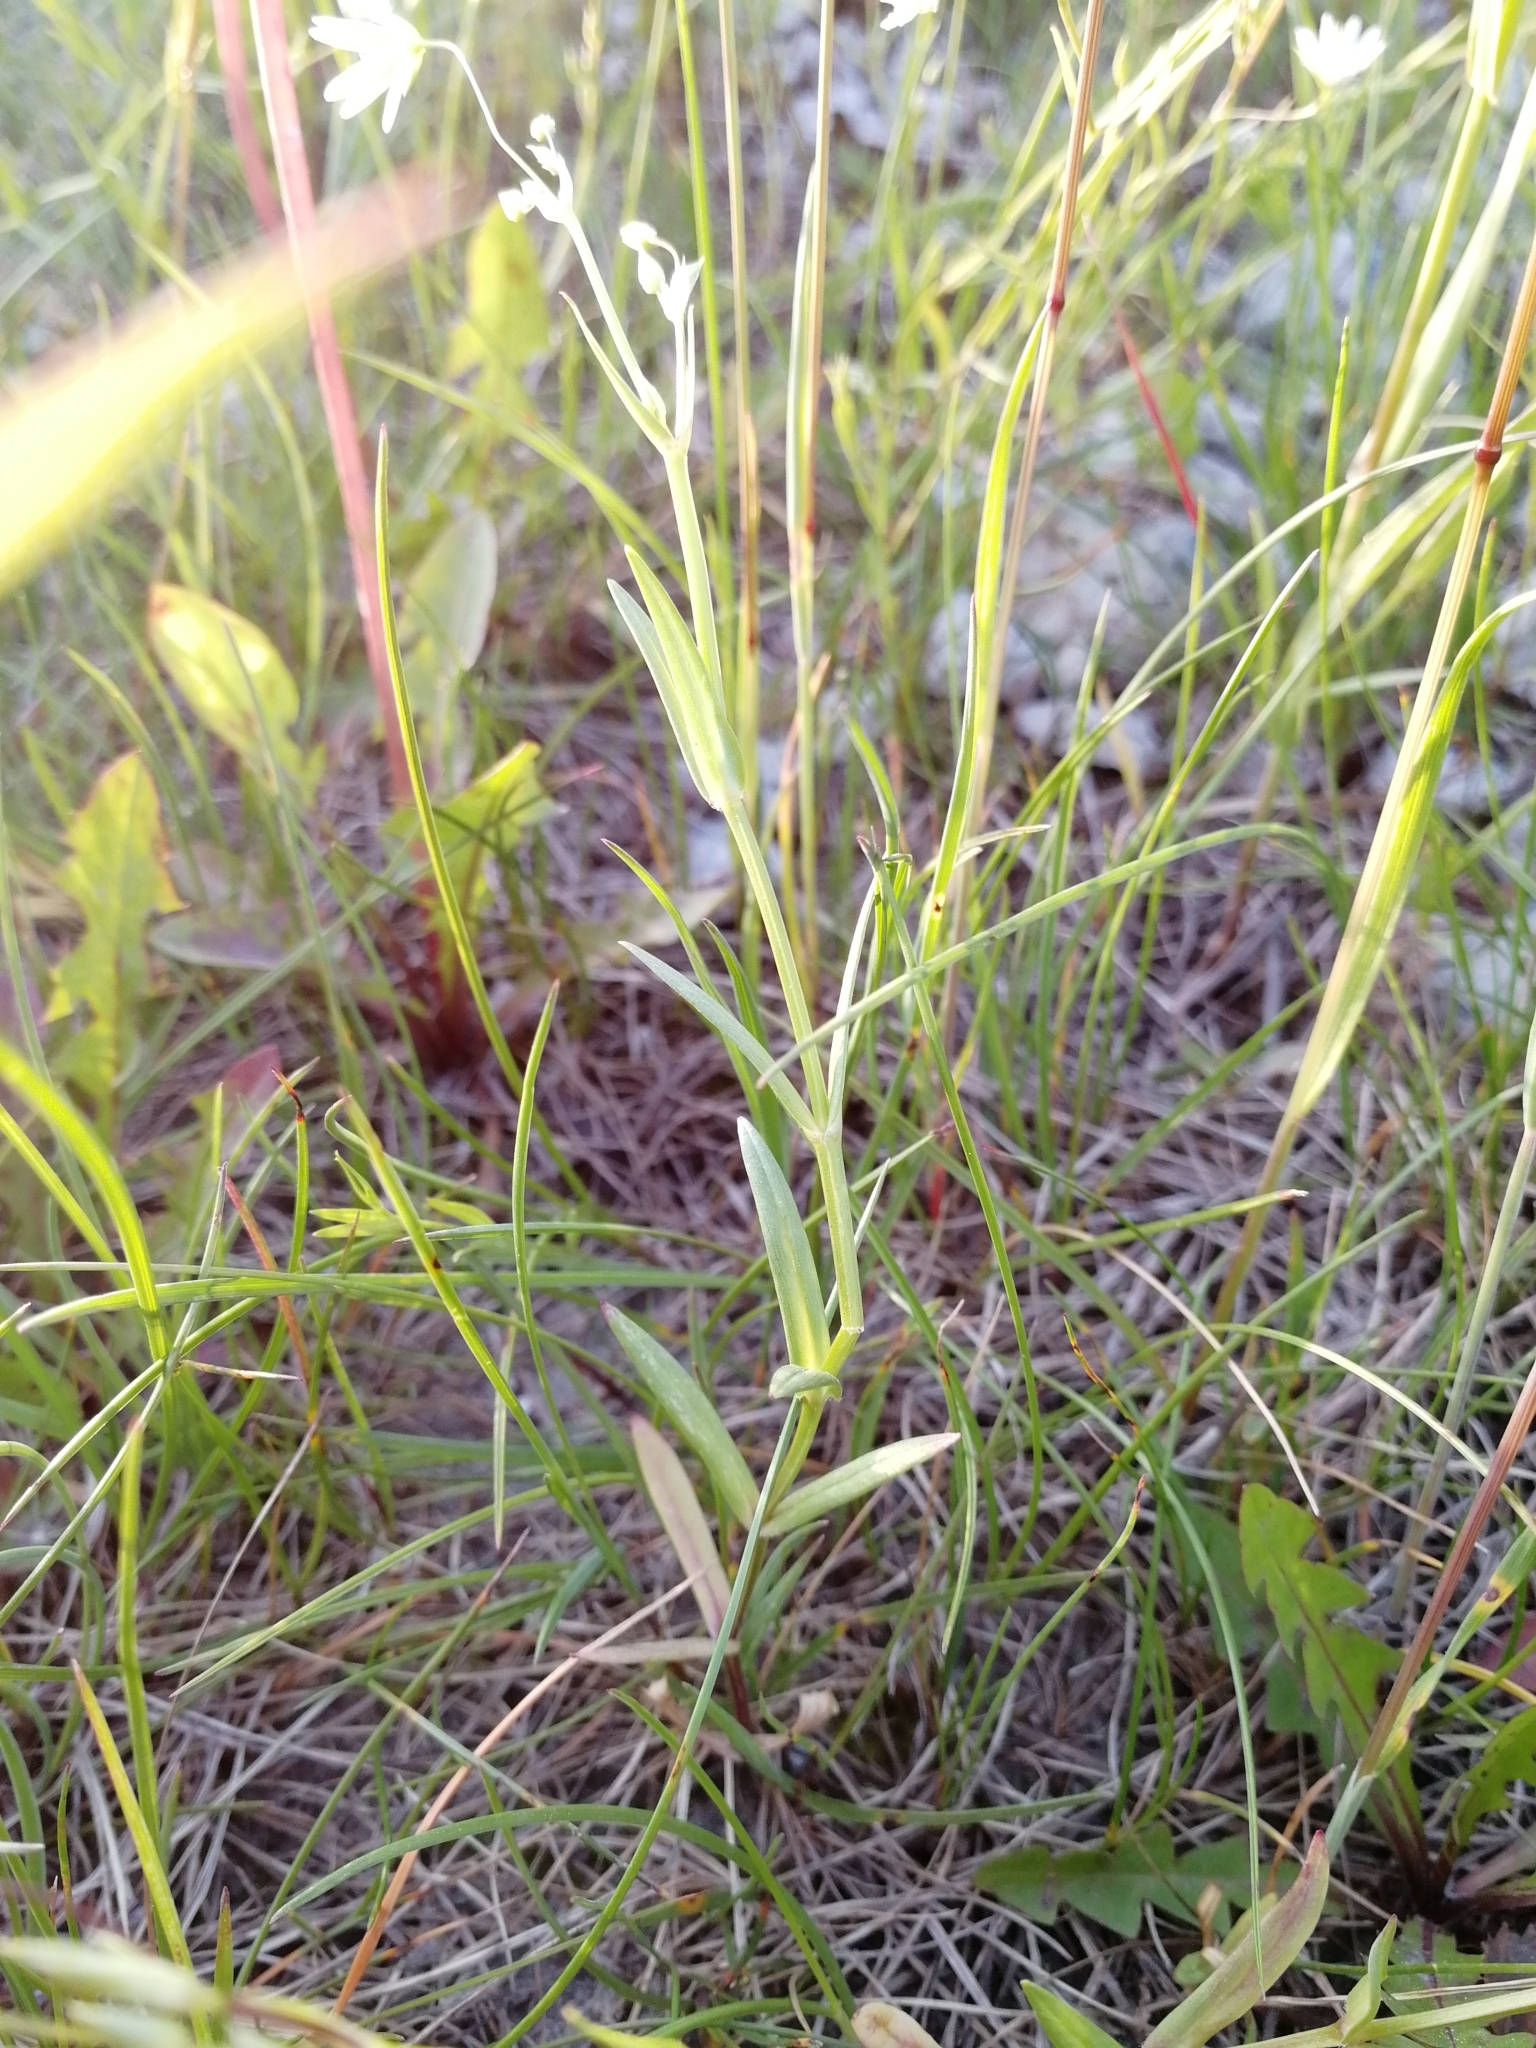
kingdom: Plantae
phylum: Tracheophyta
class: Magnoliopsida
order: Caryophyllales
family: Caryophyllaceae
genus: Stellaria
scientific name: Stellaria graminea
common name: Grass-like starwort
